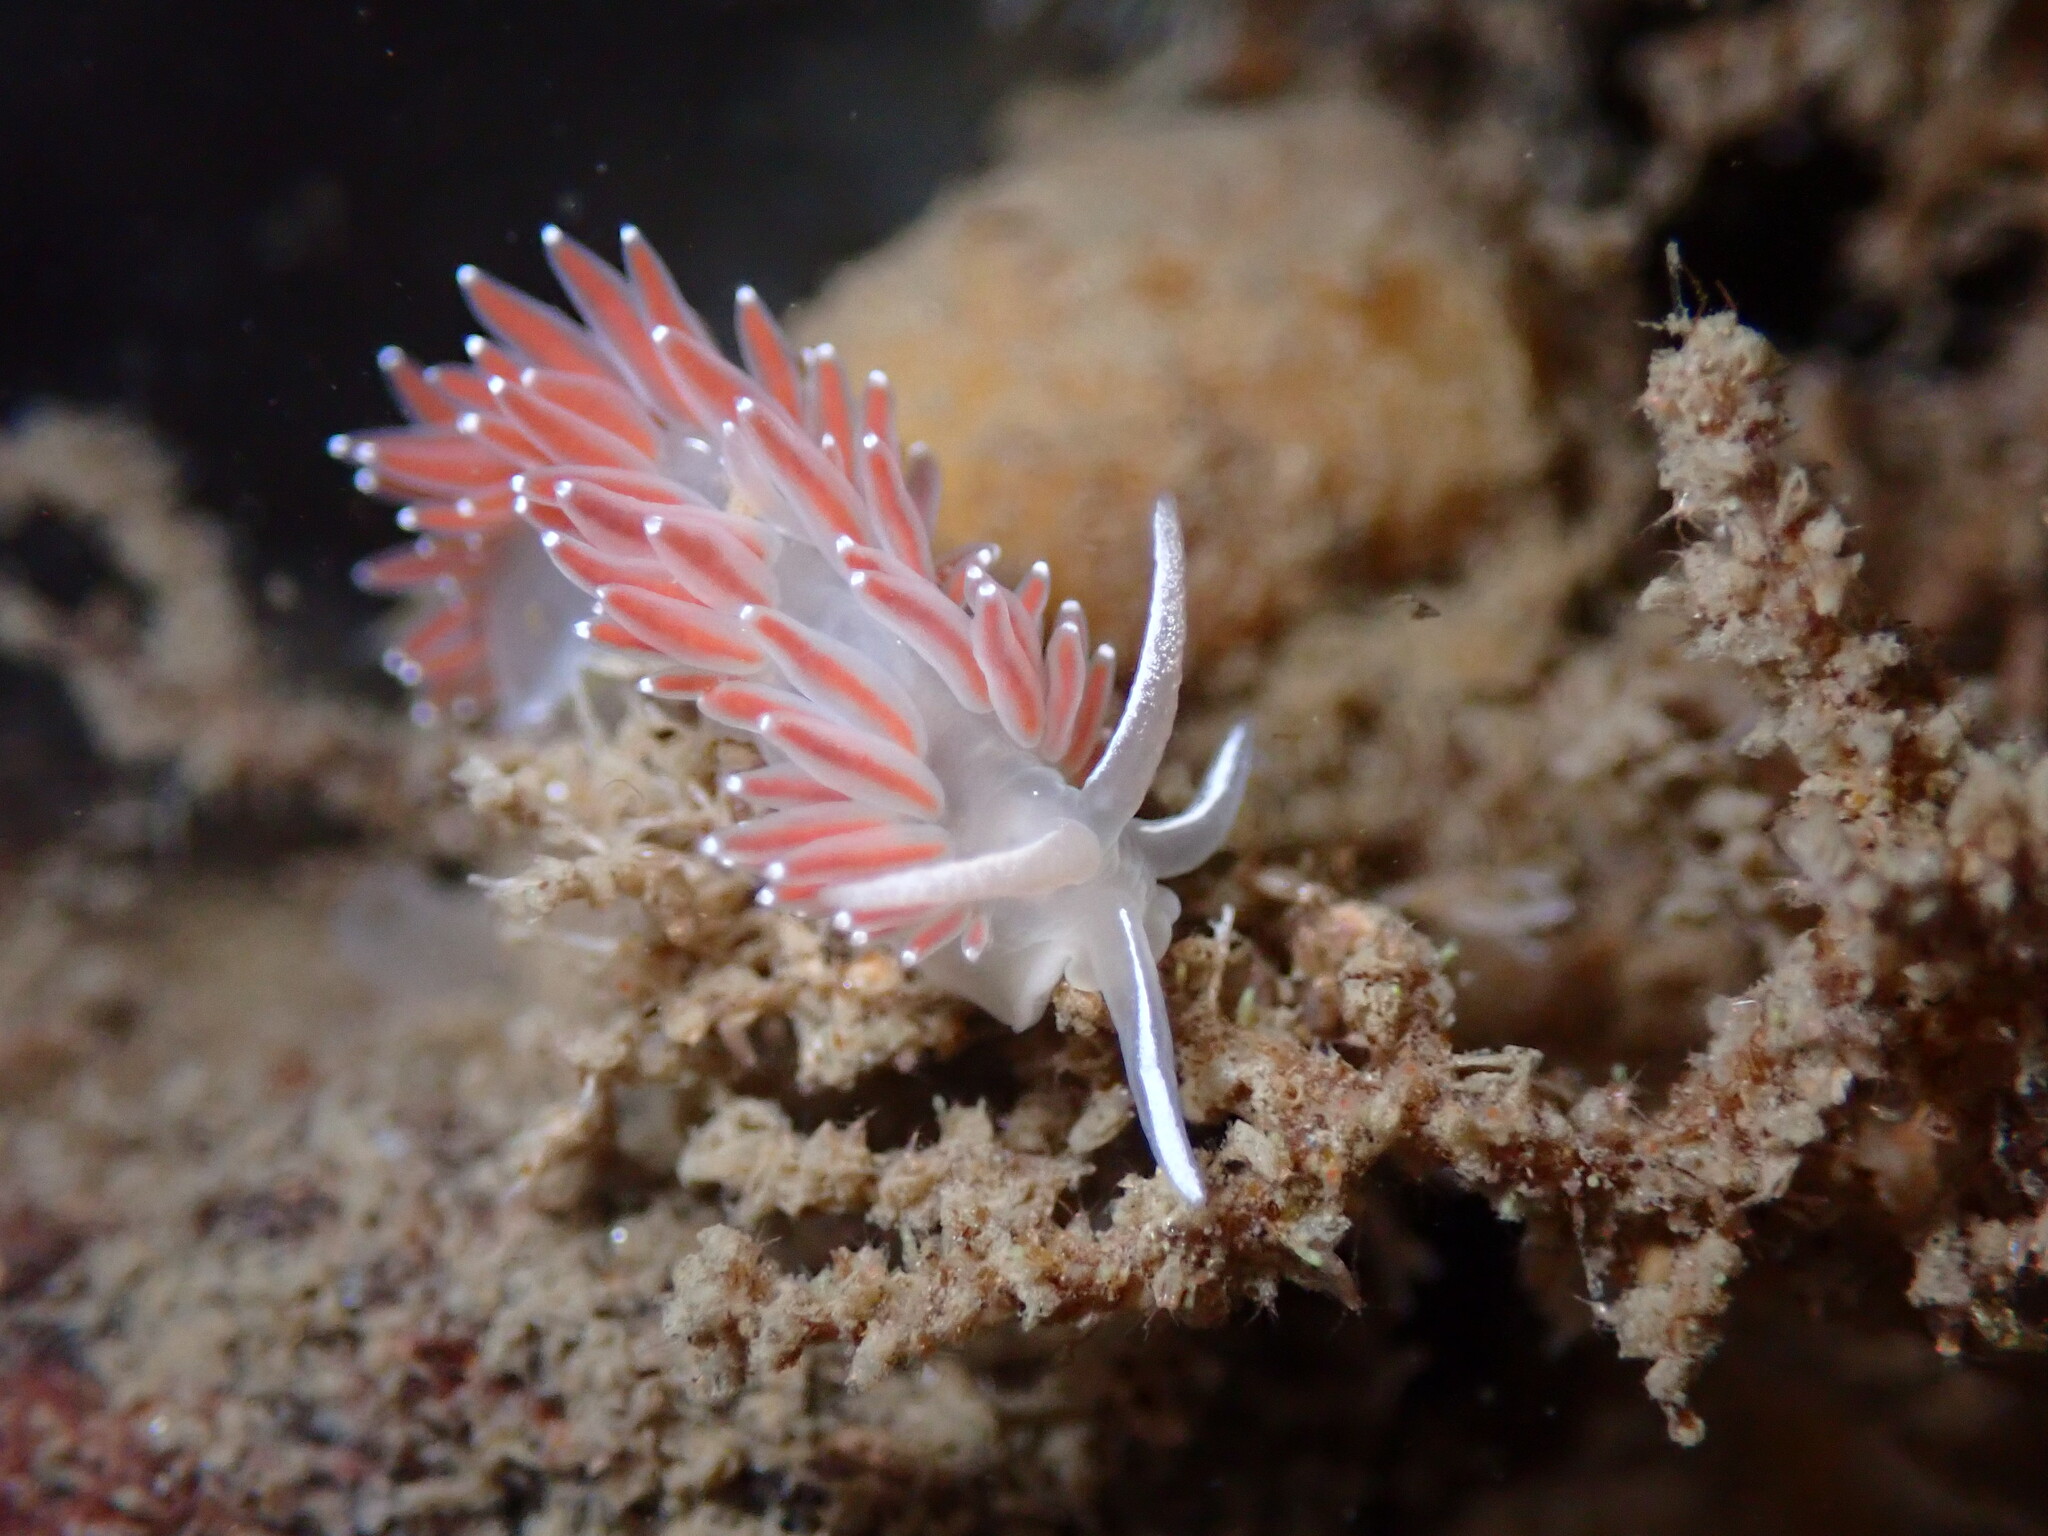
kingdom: Animalia
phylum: Mollusca
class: Gastropoda
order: Nudibranchia
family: Coryphellidae
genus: Coryphella
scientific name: Coryphella verrucosa
